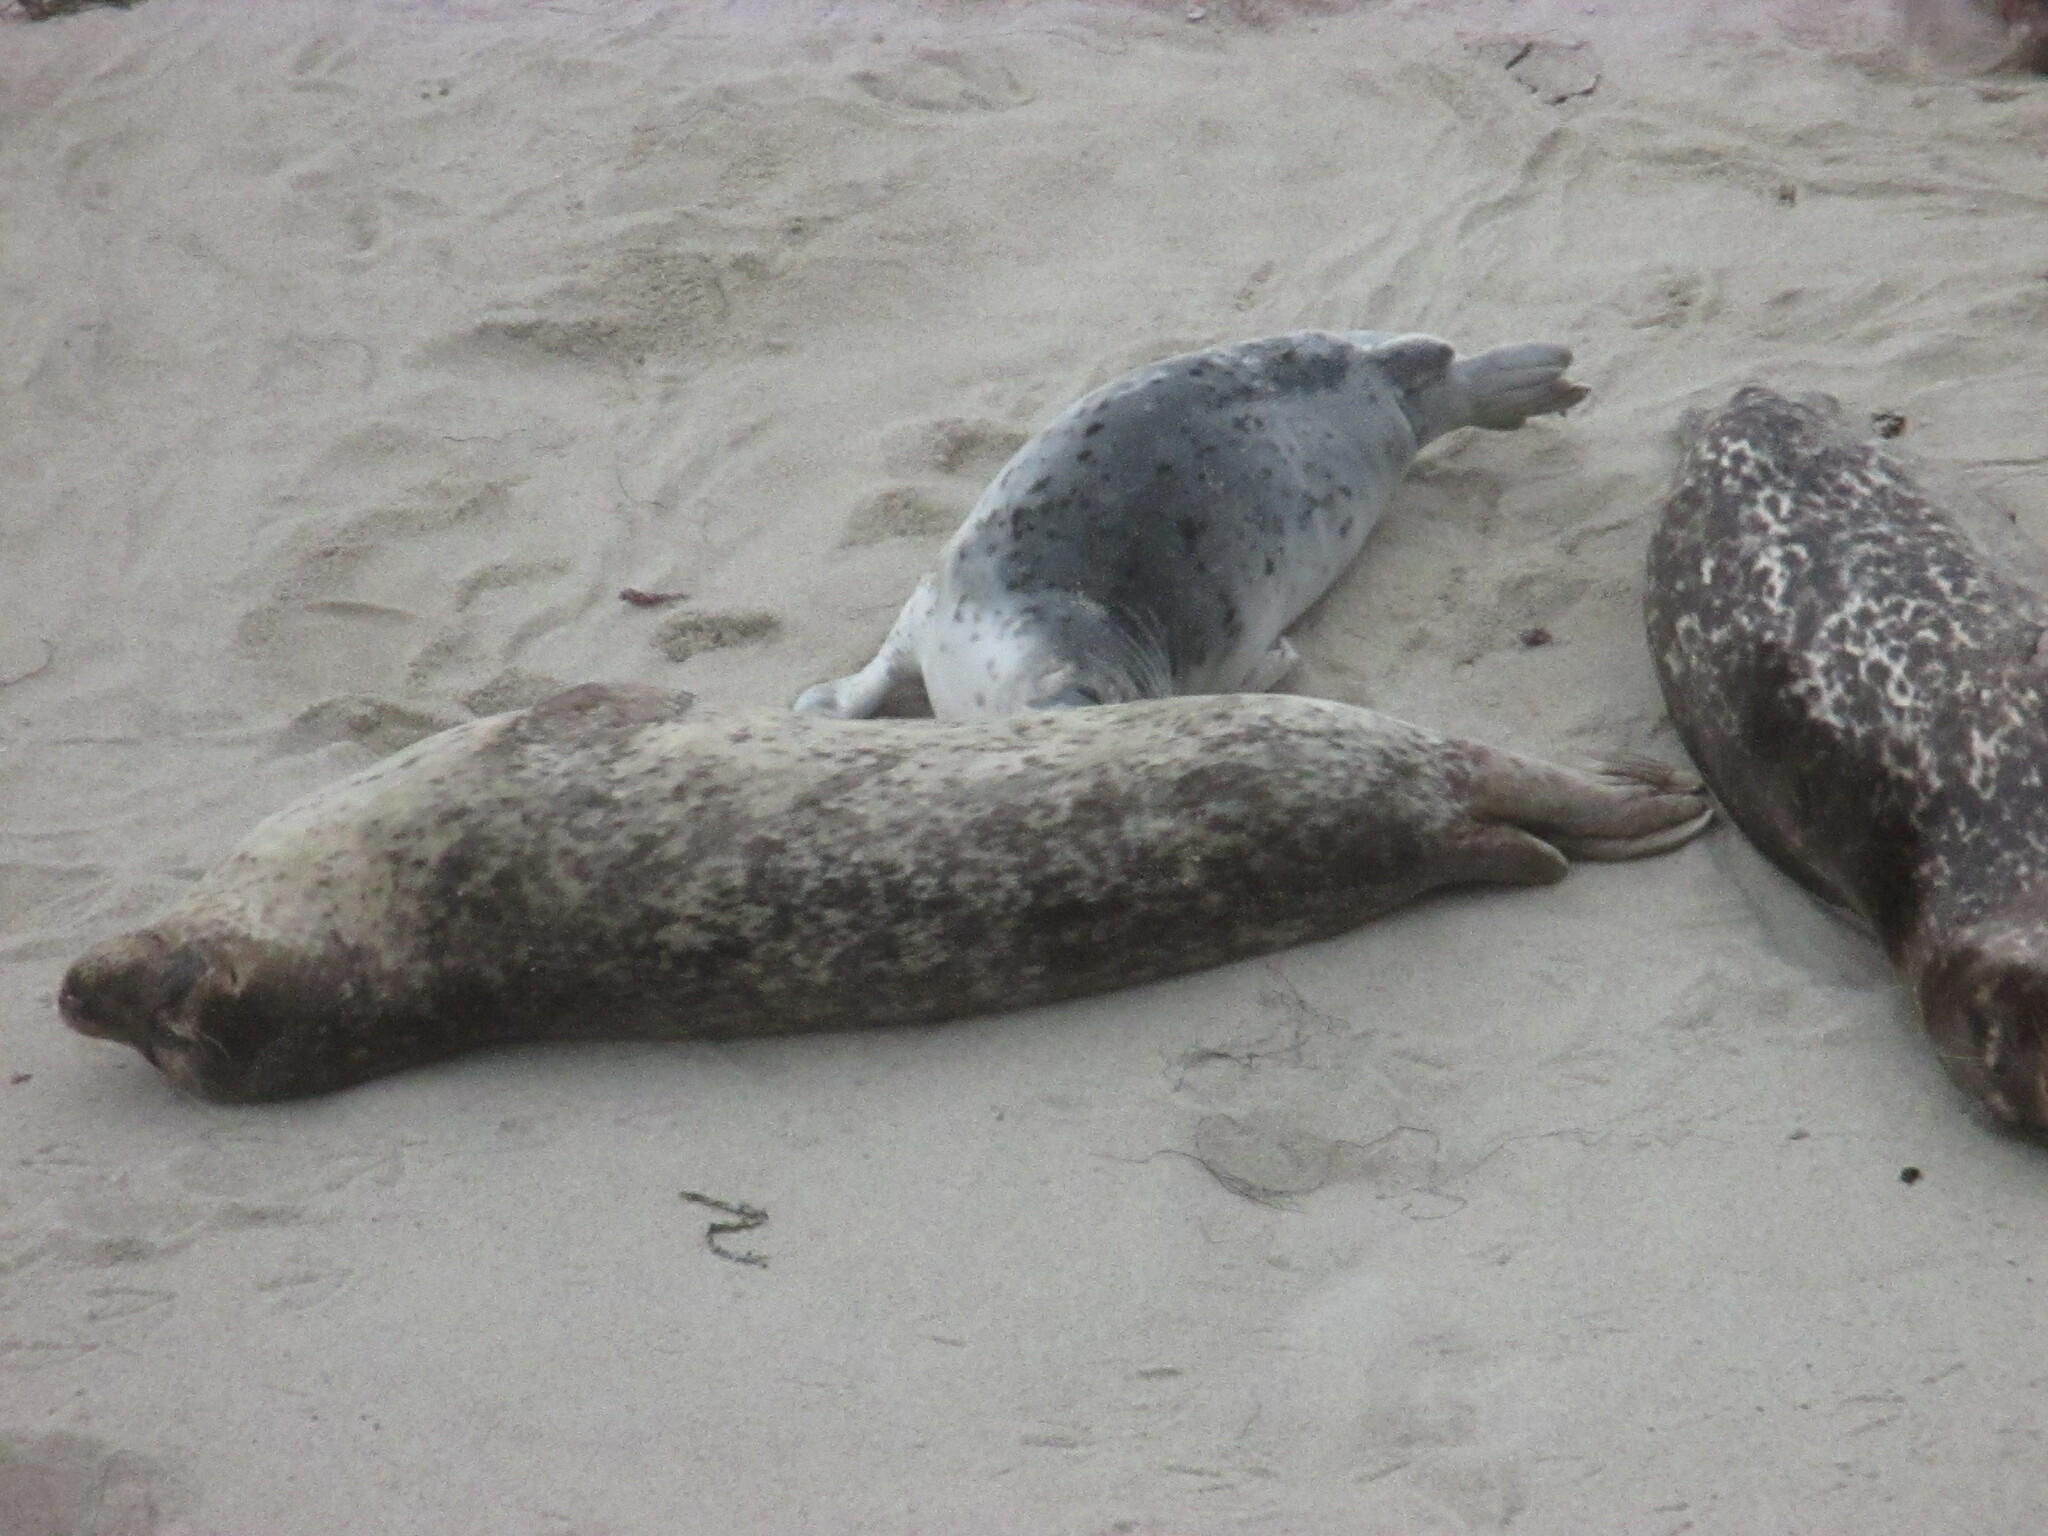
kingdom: Animalia
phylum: Chordata
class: Mammalia
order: Carnivora
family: Phocidae
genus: Phoca
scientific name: Phoca vitulina
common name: Harbor seal
